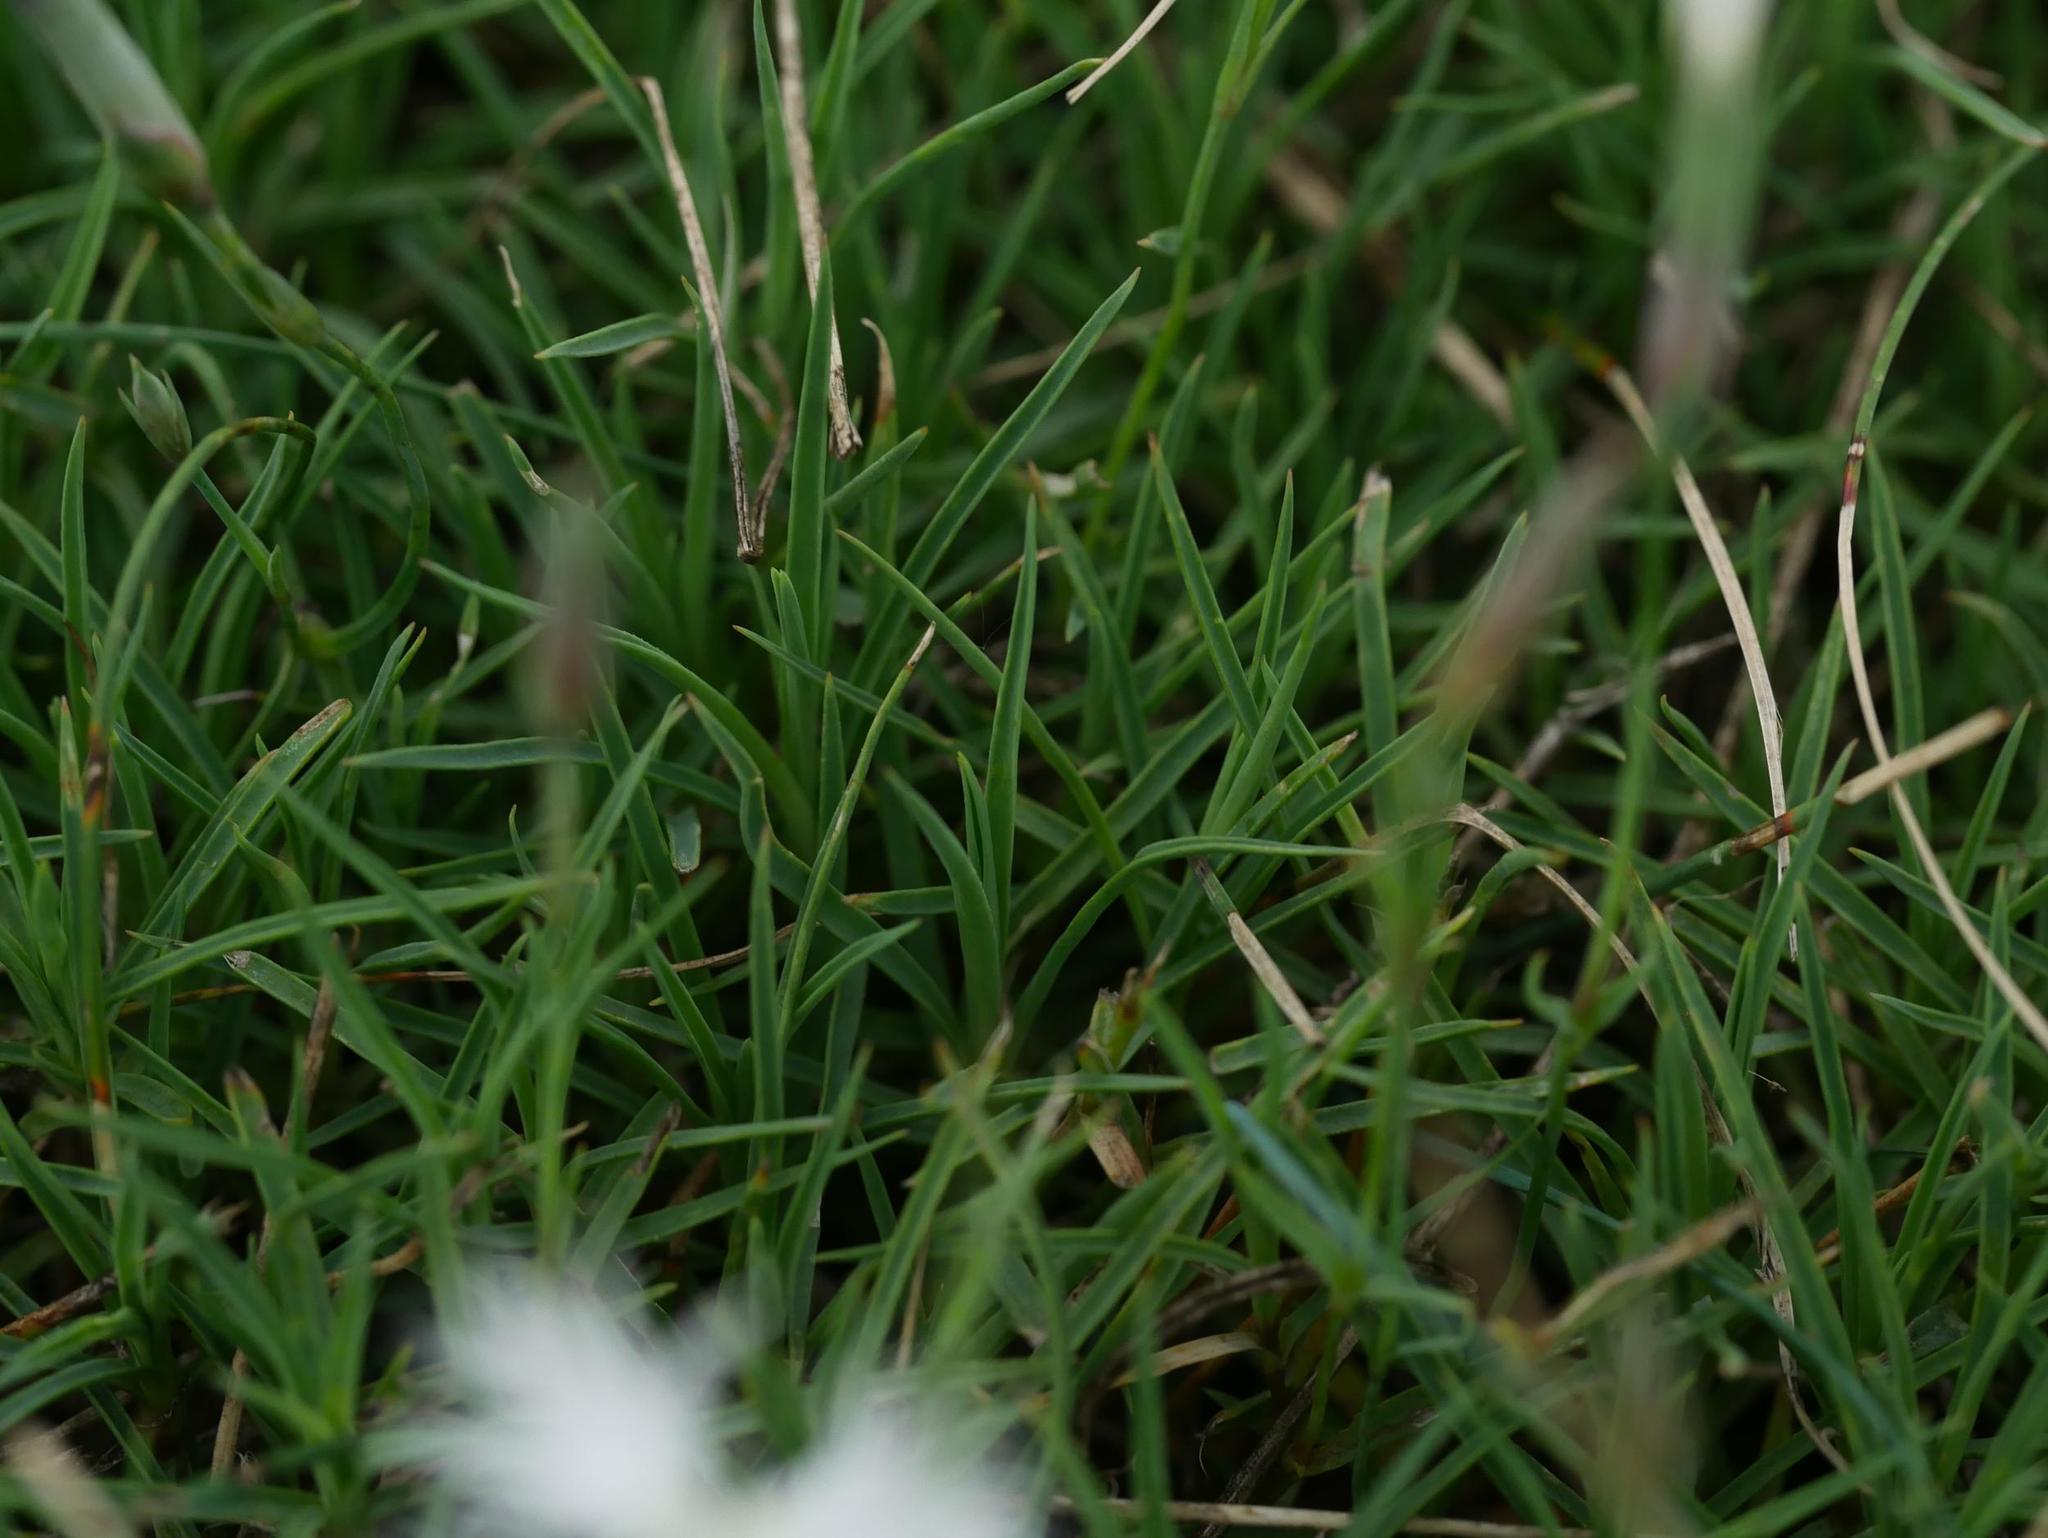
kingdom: Plantae
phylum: Tracheophyta
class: Magnoliopsida
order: Caryophyllales
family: Caryophyllaceae
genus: Dianthus
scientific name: Dianthus arenarius
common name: Stone pink
